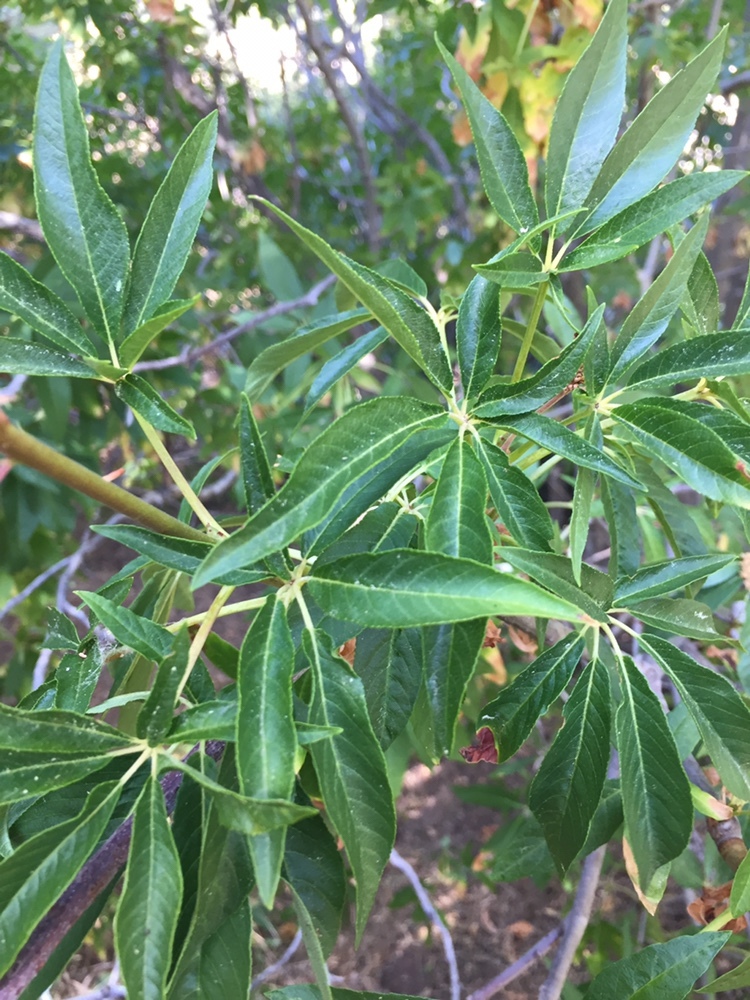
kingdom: Plantae
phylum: Tracheophyta
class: Magnoliopsida
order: Sapindales
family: Sapindaceae
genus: Aesculus
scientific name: Aesculus californica
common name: California buckeye
